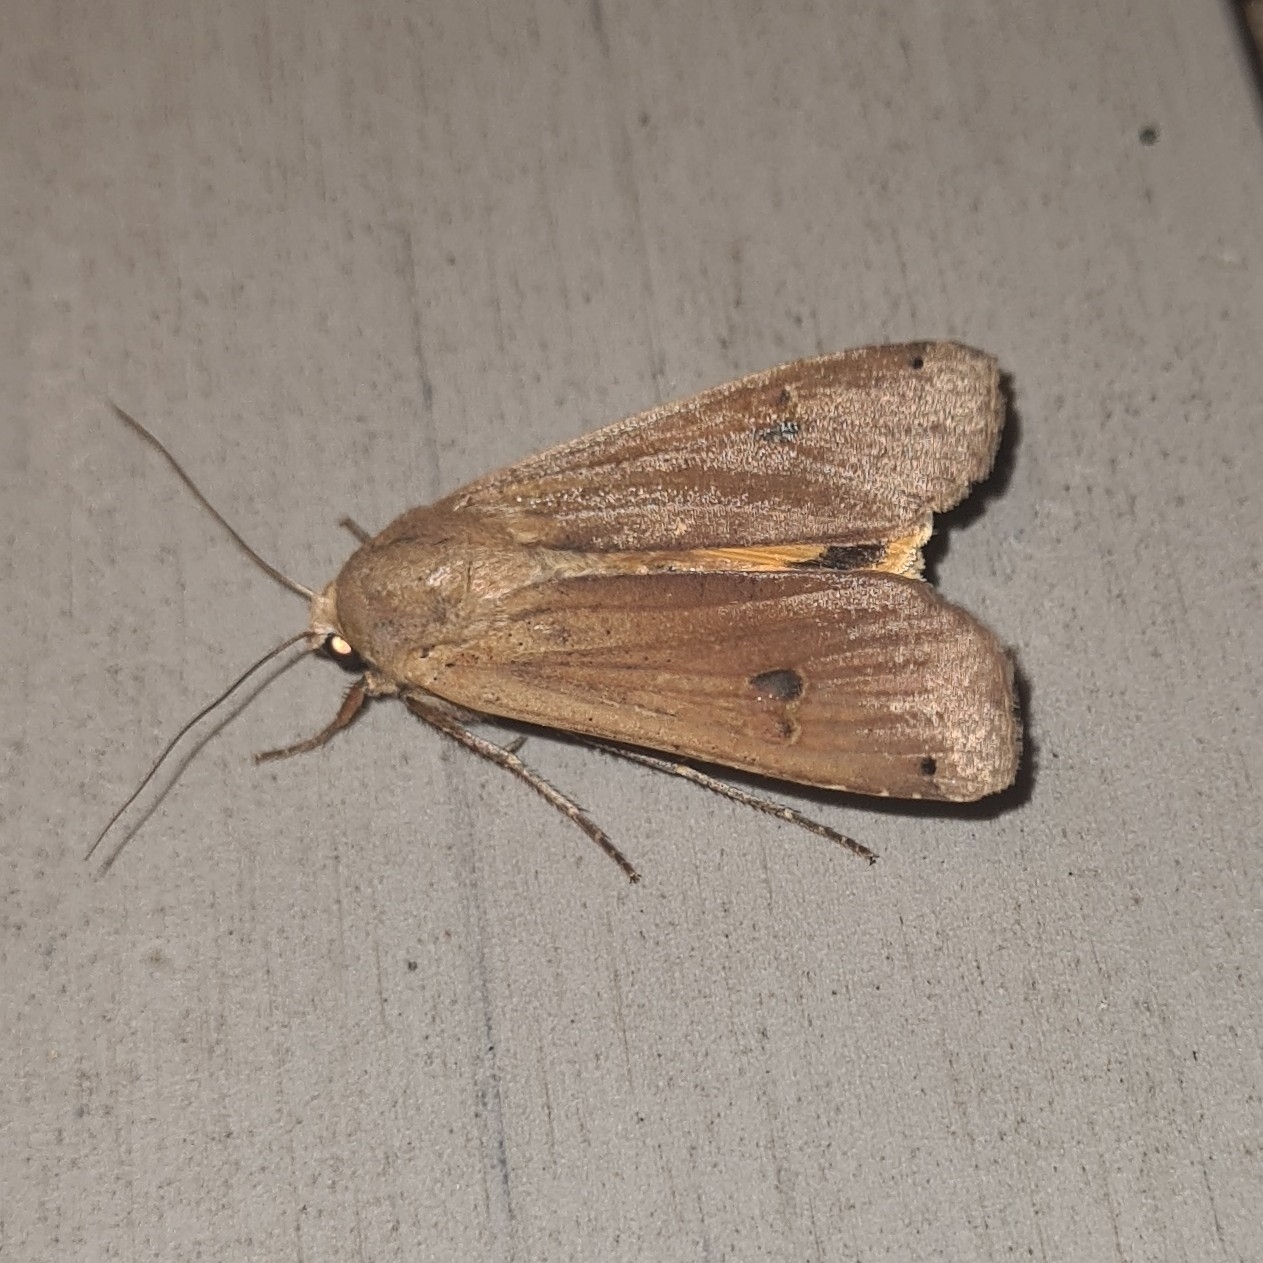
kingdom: Animalia
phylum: Arthropoda
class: Insecta
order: Lepidoptera
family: Noctuidae
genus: Noctua
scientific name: Noctua pronuba
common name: Large yellow underwing
